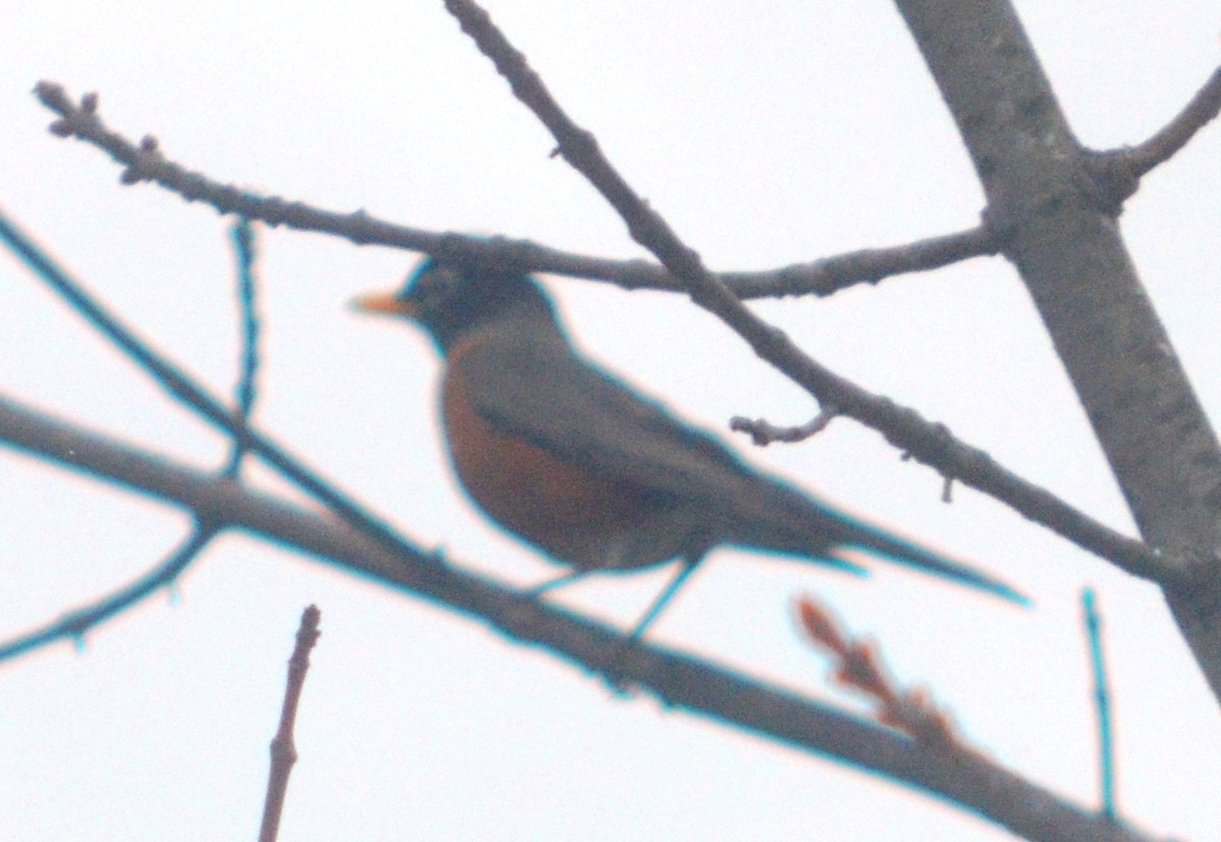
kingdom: Animalia
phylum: Chordata
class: Aves
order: Passeriformes
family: Turdidae
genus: Turdus
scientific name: Turdus migratorius
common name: American robin
